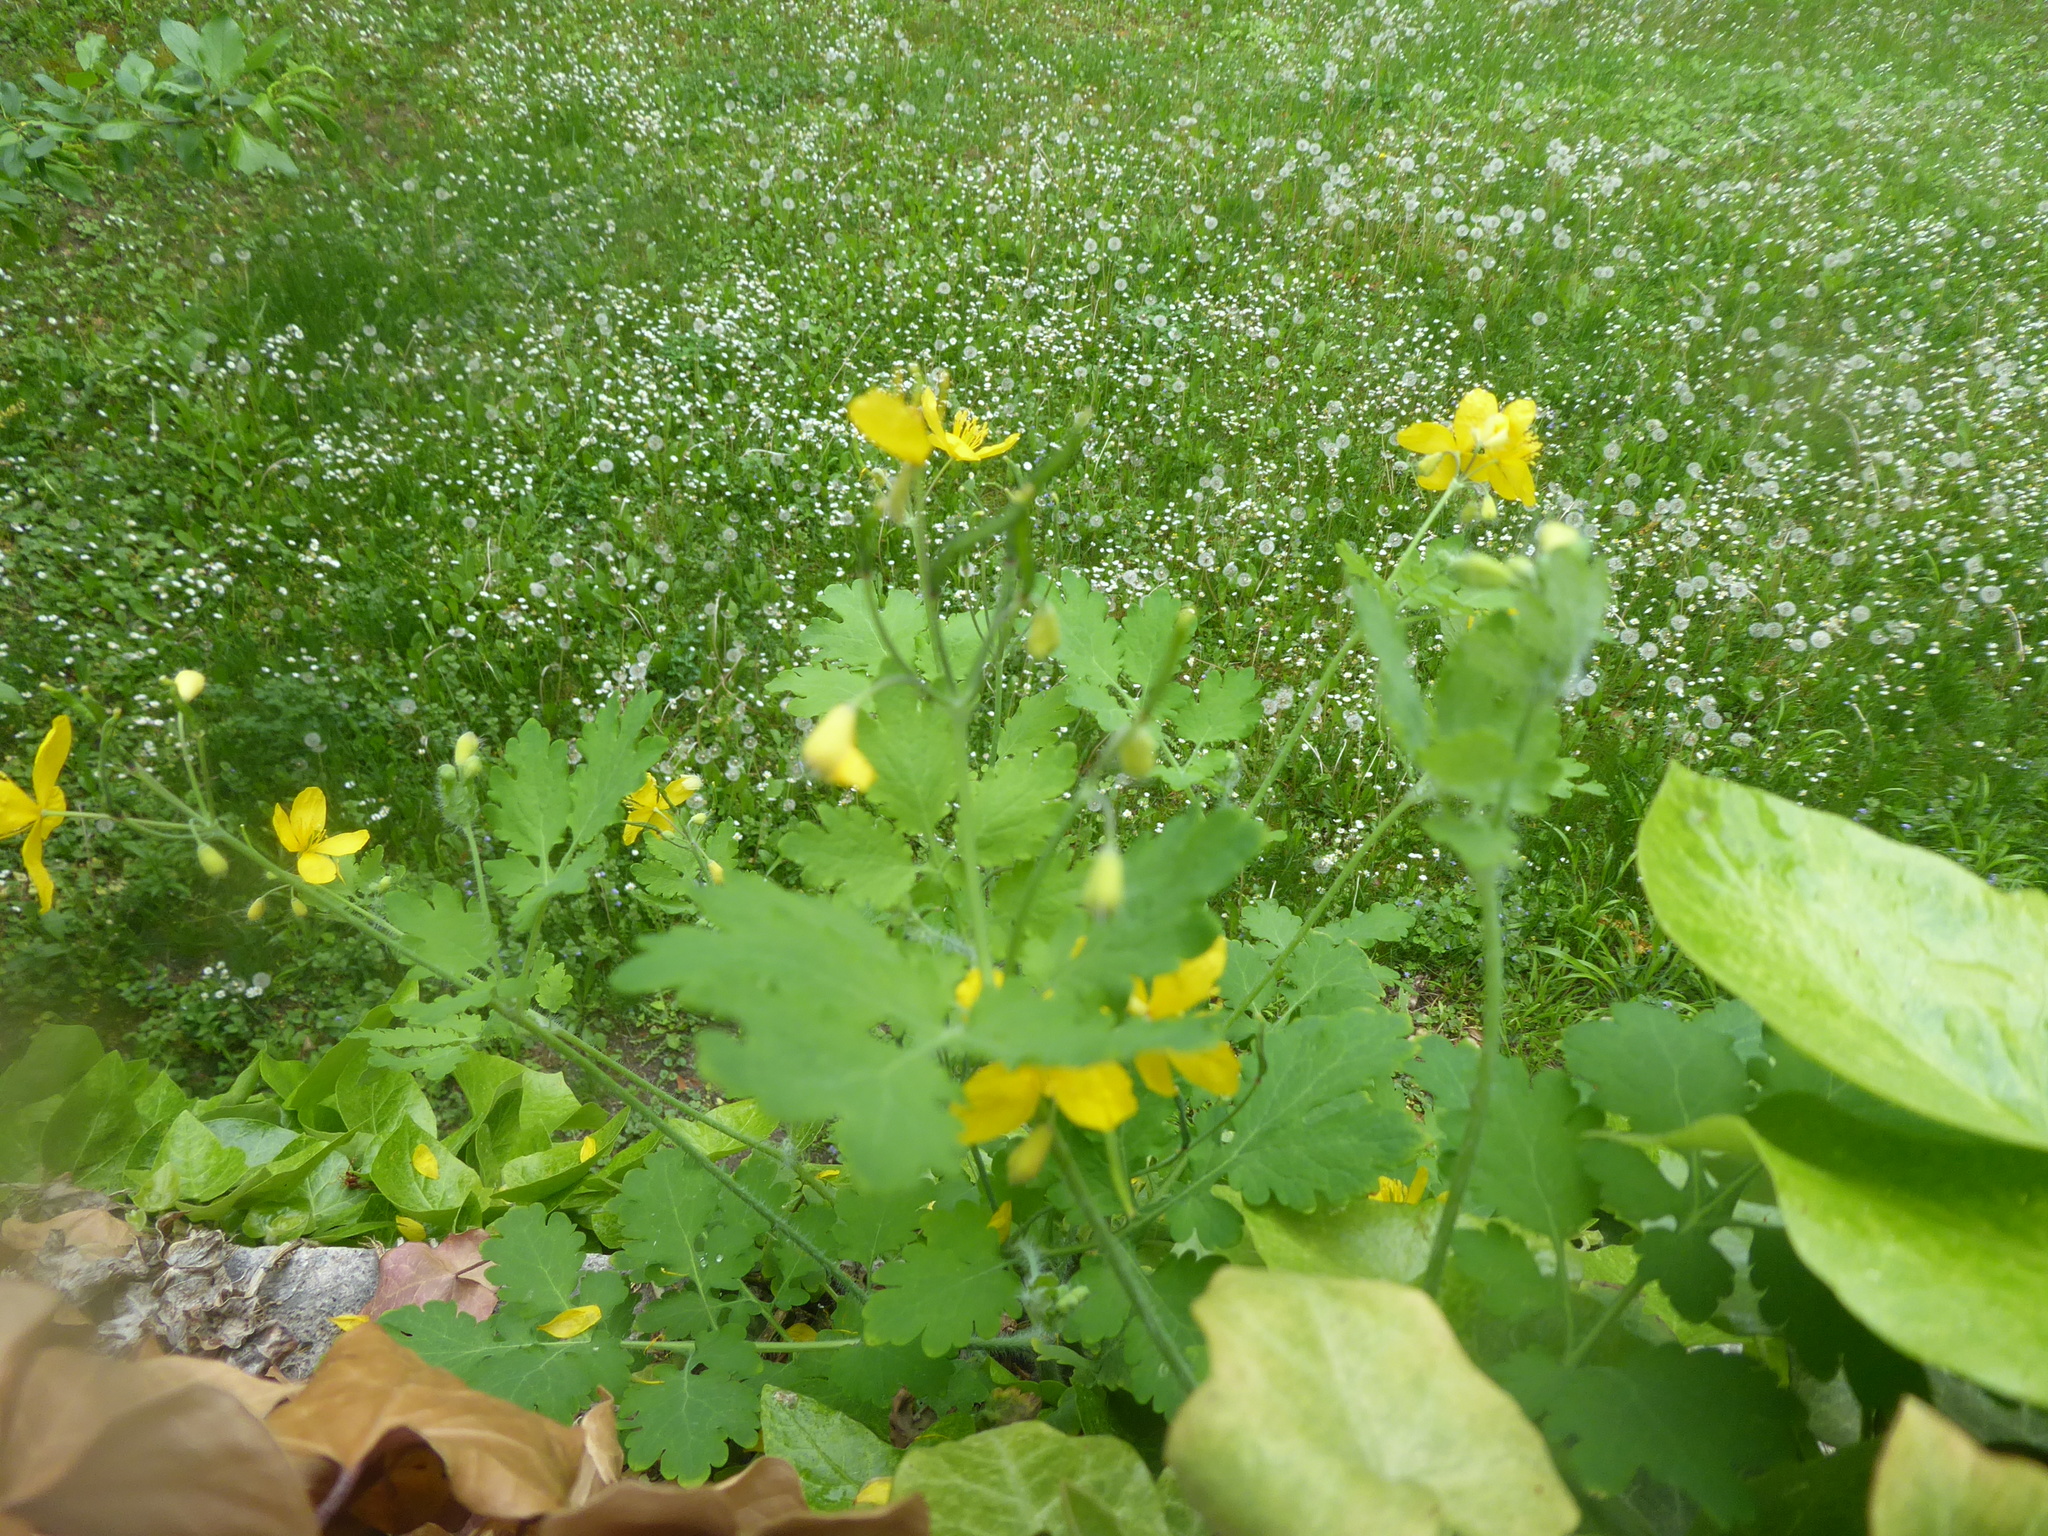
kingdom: Plantae
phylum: Tracheophyta
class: Magnoliopsida
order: Ranunculales
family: Papaveraceae
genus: Chelidonium
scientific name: Chelidonium majus
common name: Greater celandine
